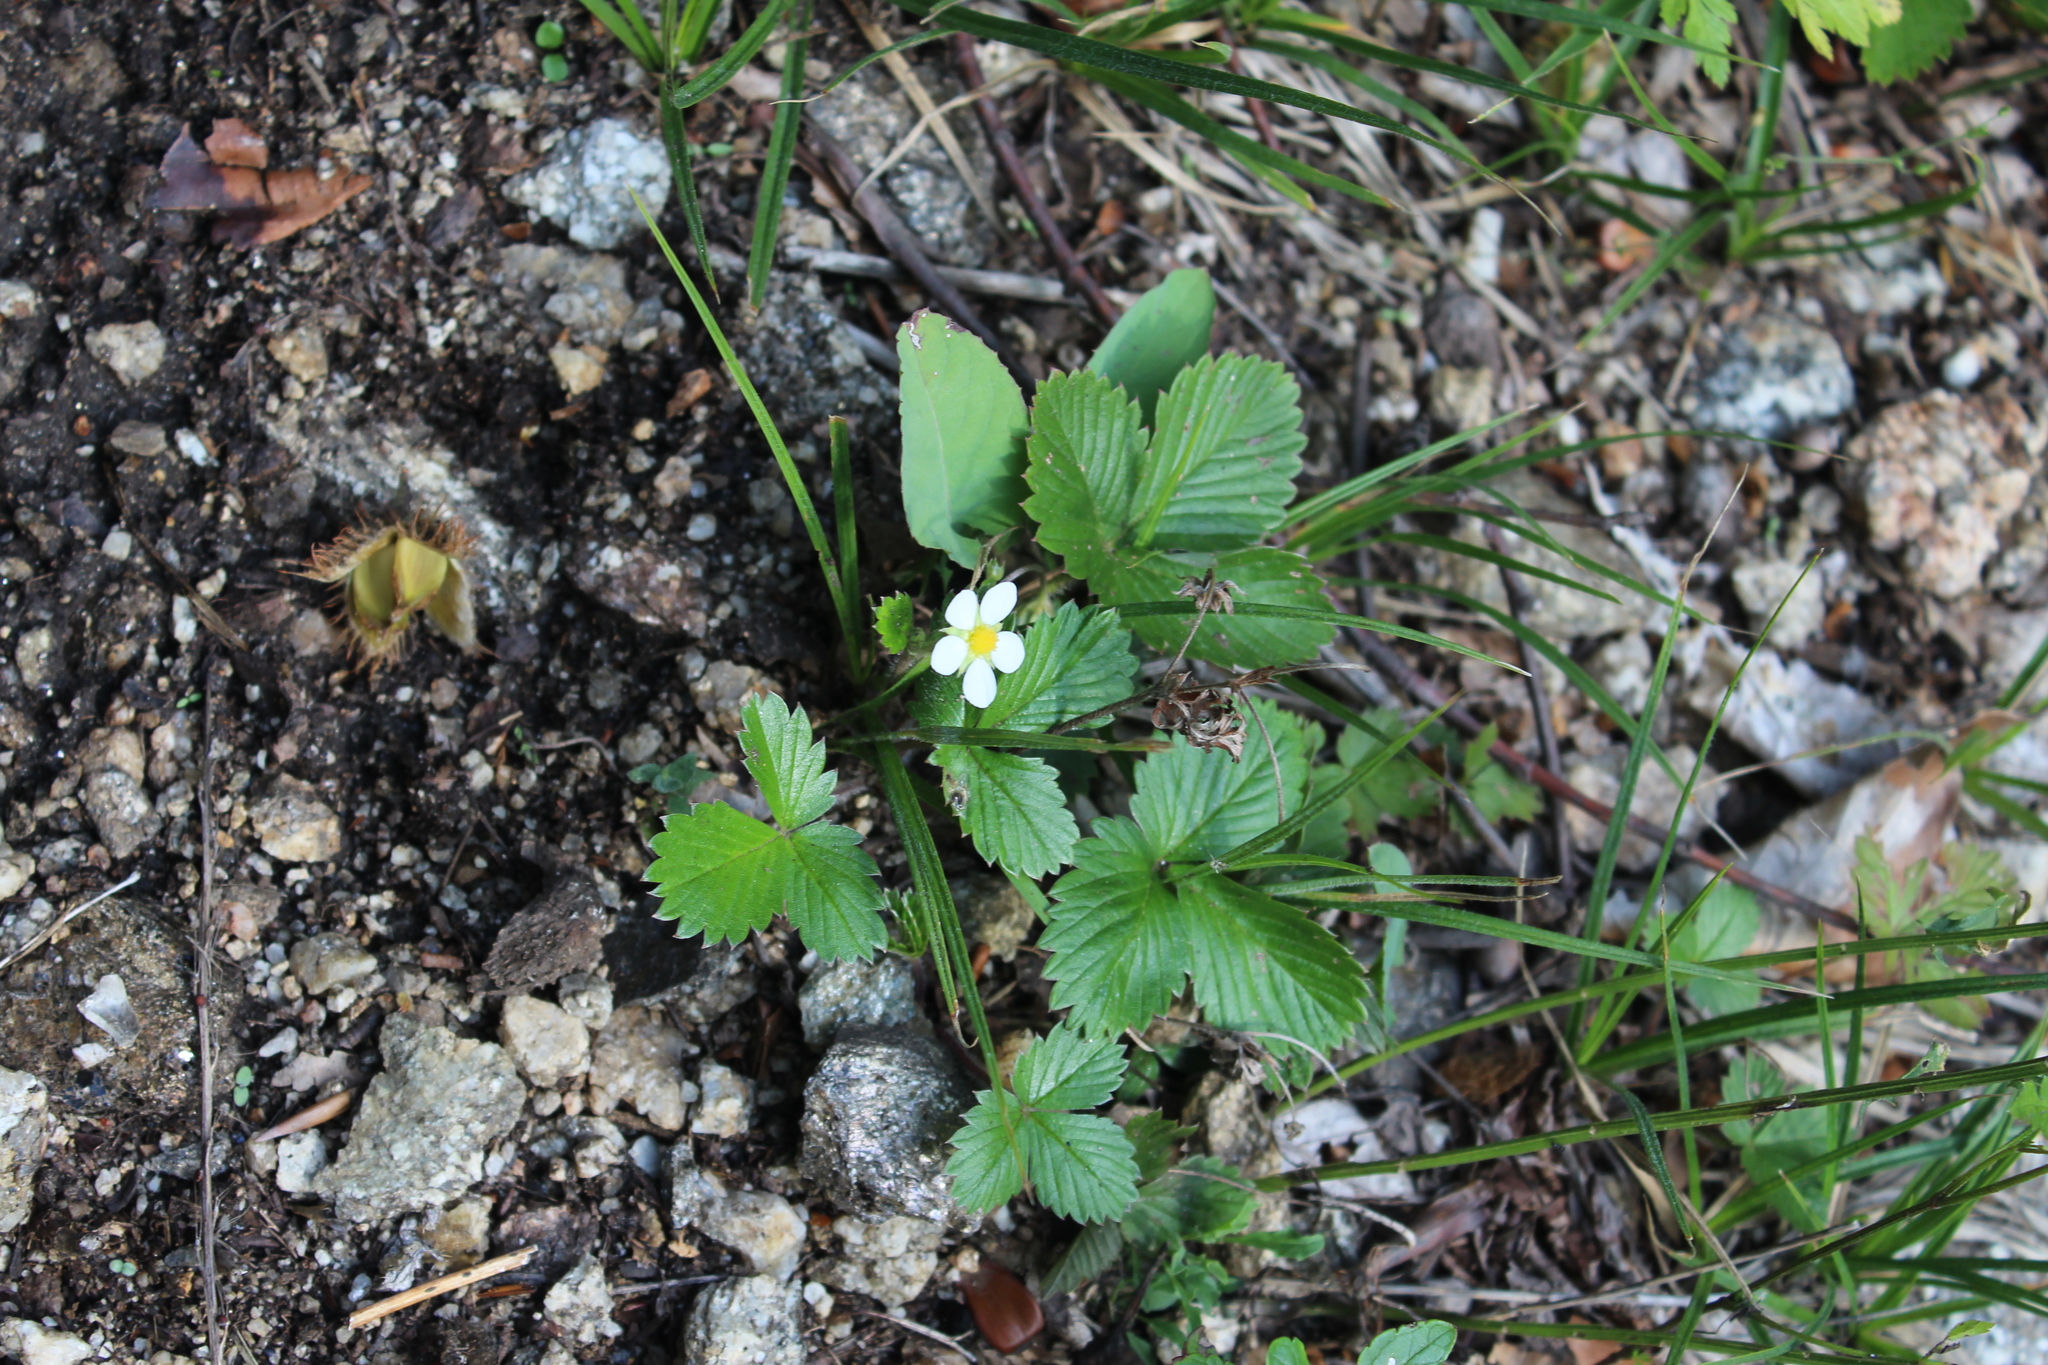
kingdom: Plantae
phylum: Tracheophyta
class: Magnoliopsida
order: Rosales
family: Rosaceae
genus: Fragaria
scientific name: Fragaria vesca
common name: Wild strawberry
